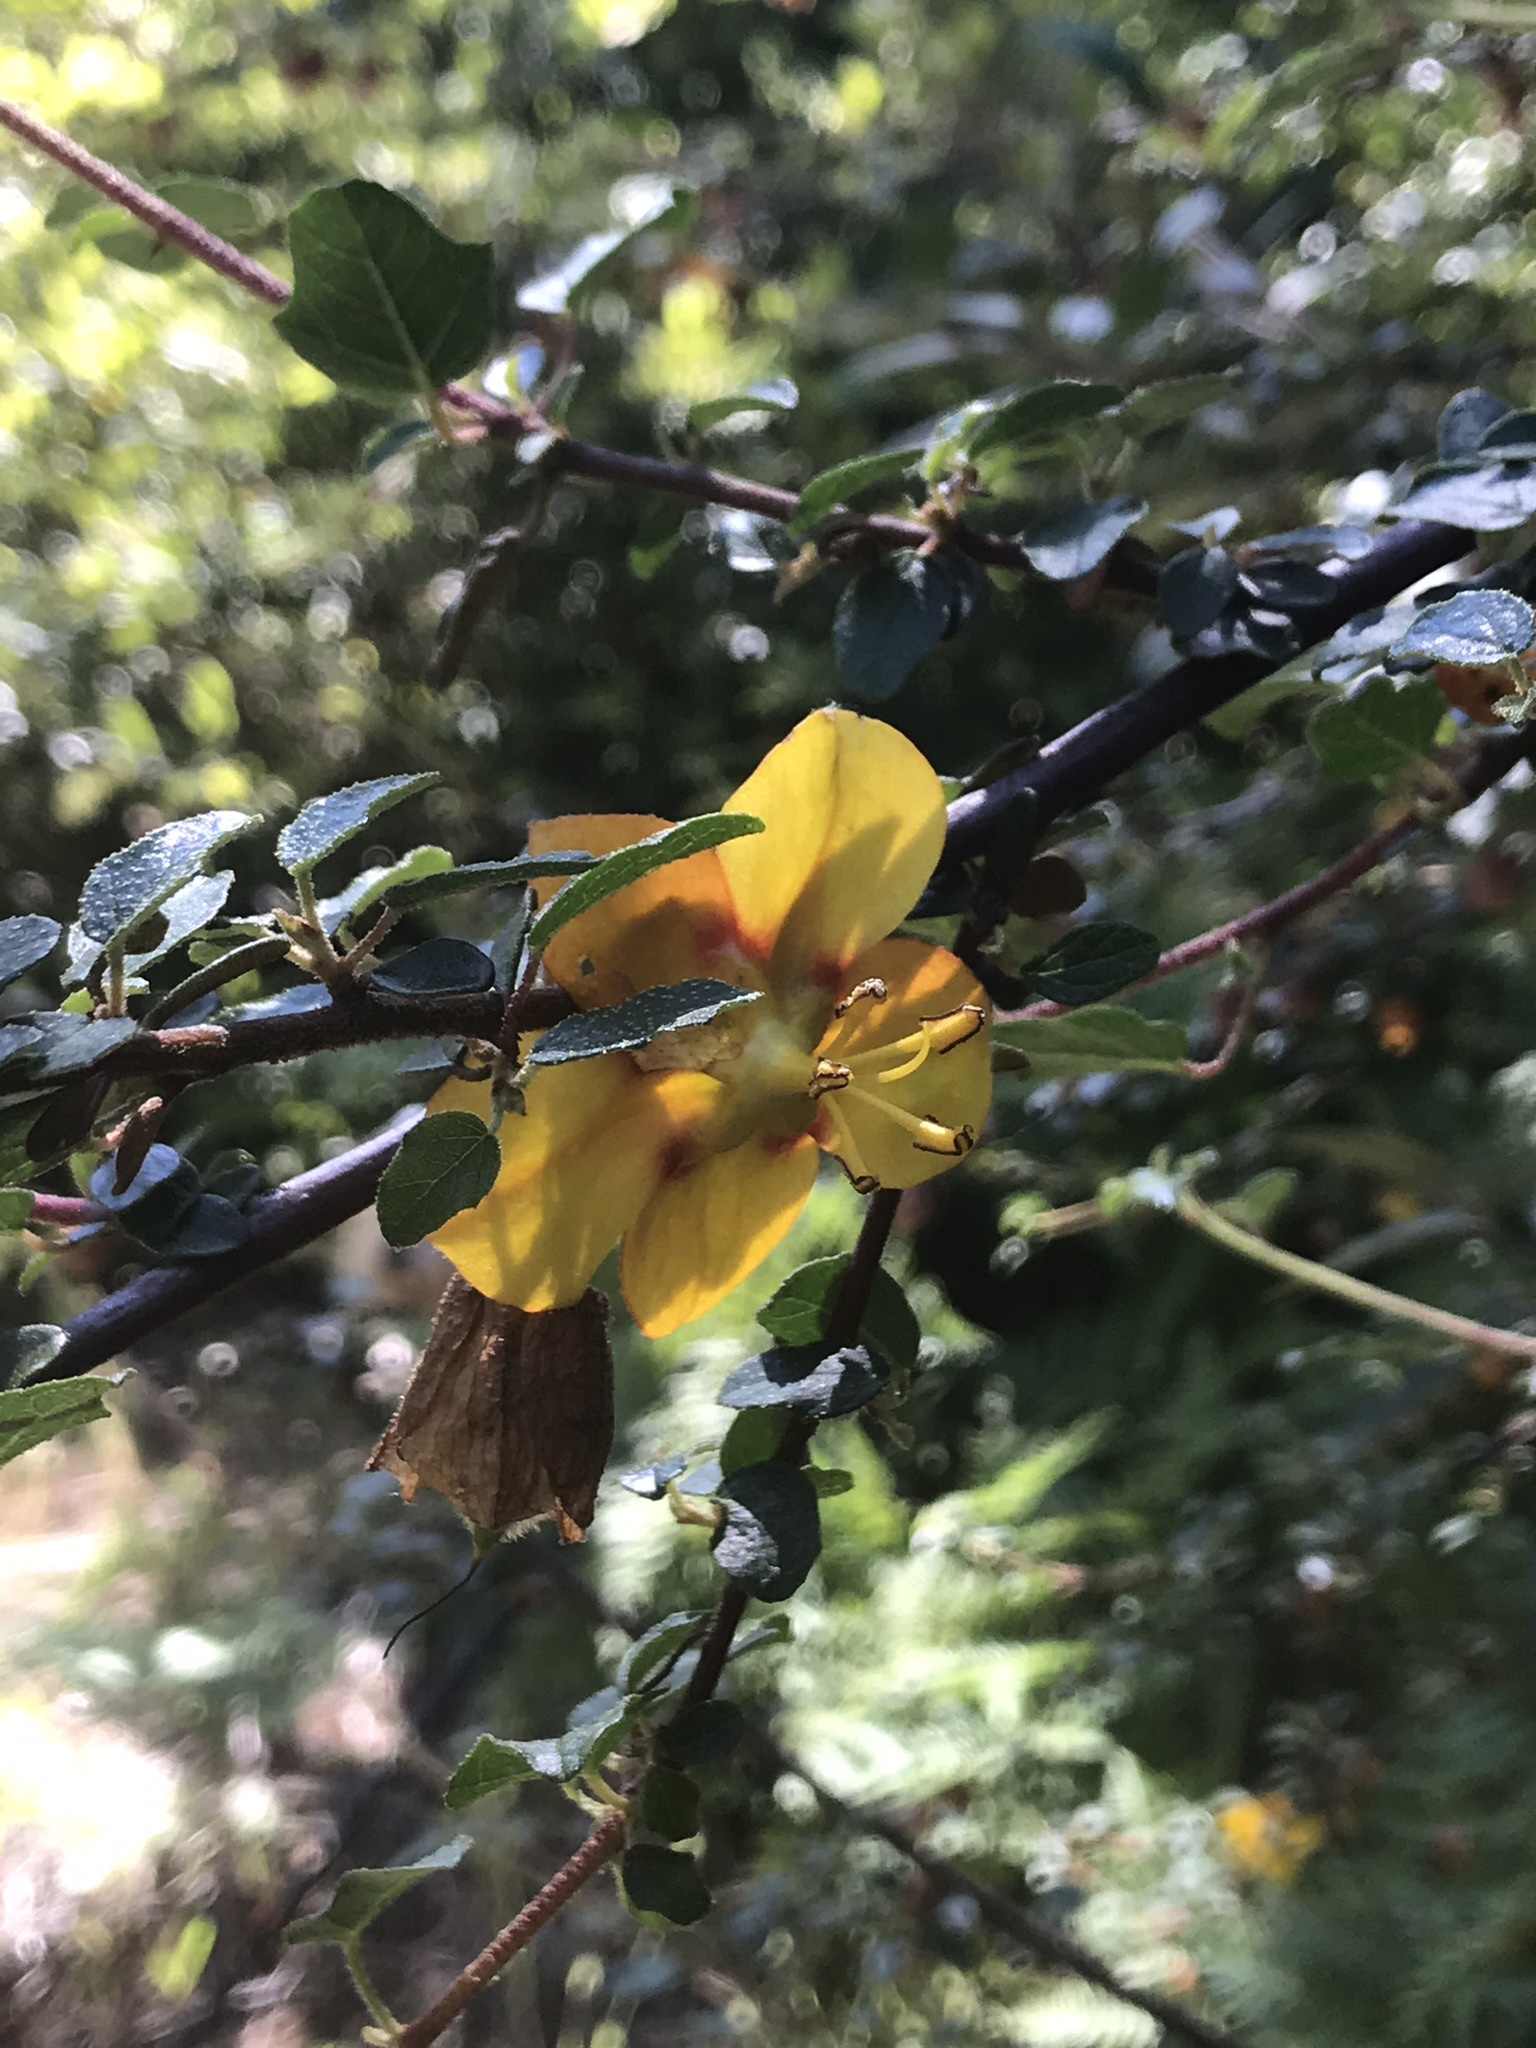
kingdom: Plantae
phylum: Tracheophyta
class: Magnoliopsida
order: Malvales
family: Malvaceae
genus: Fremontodendron
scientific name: Fremontodendron californicum
